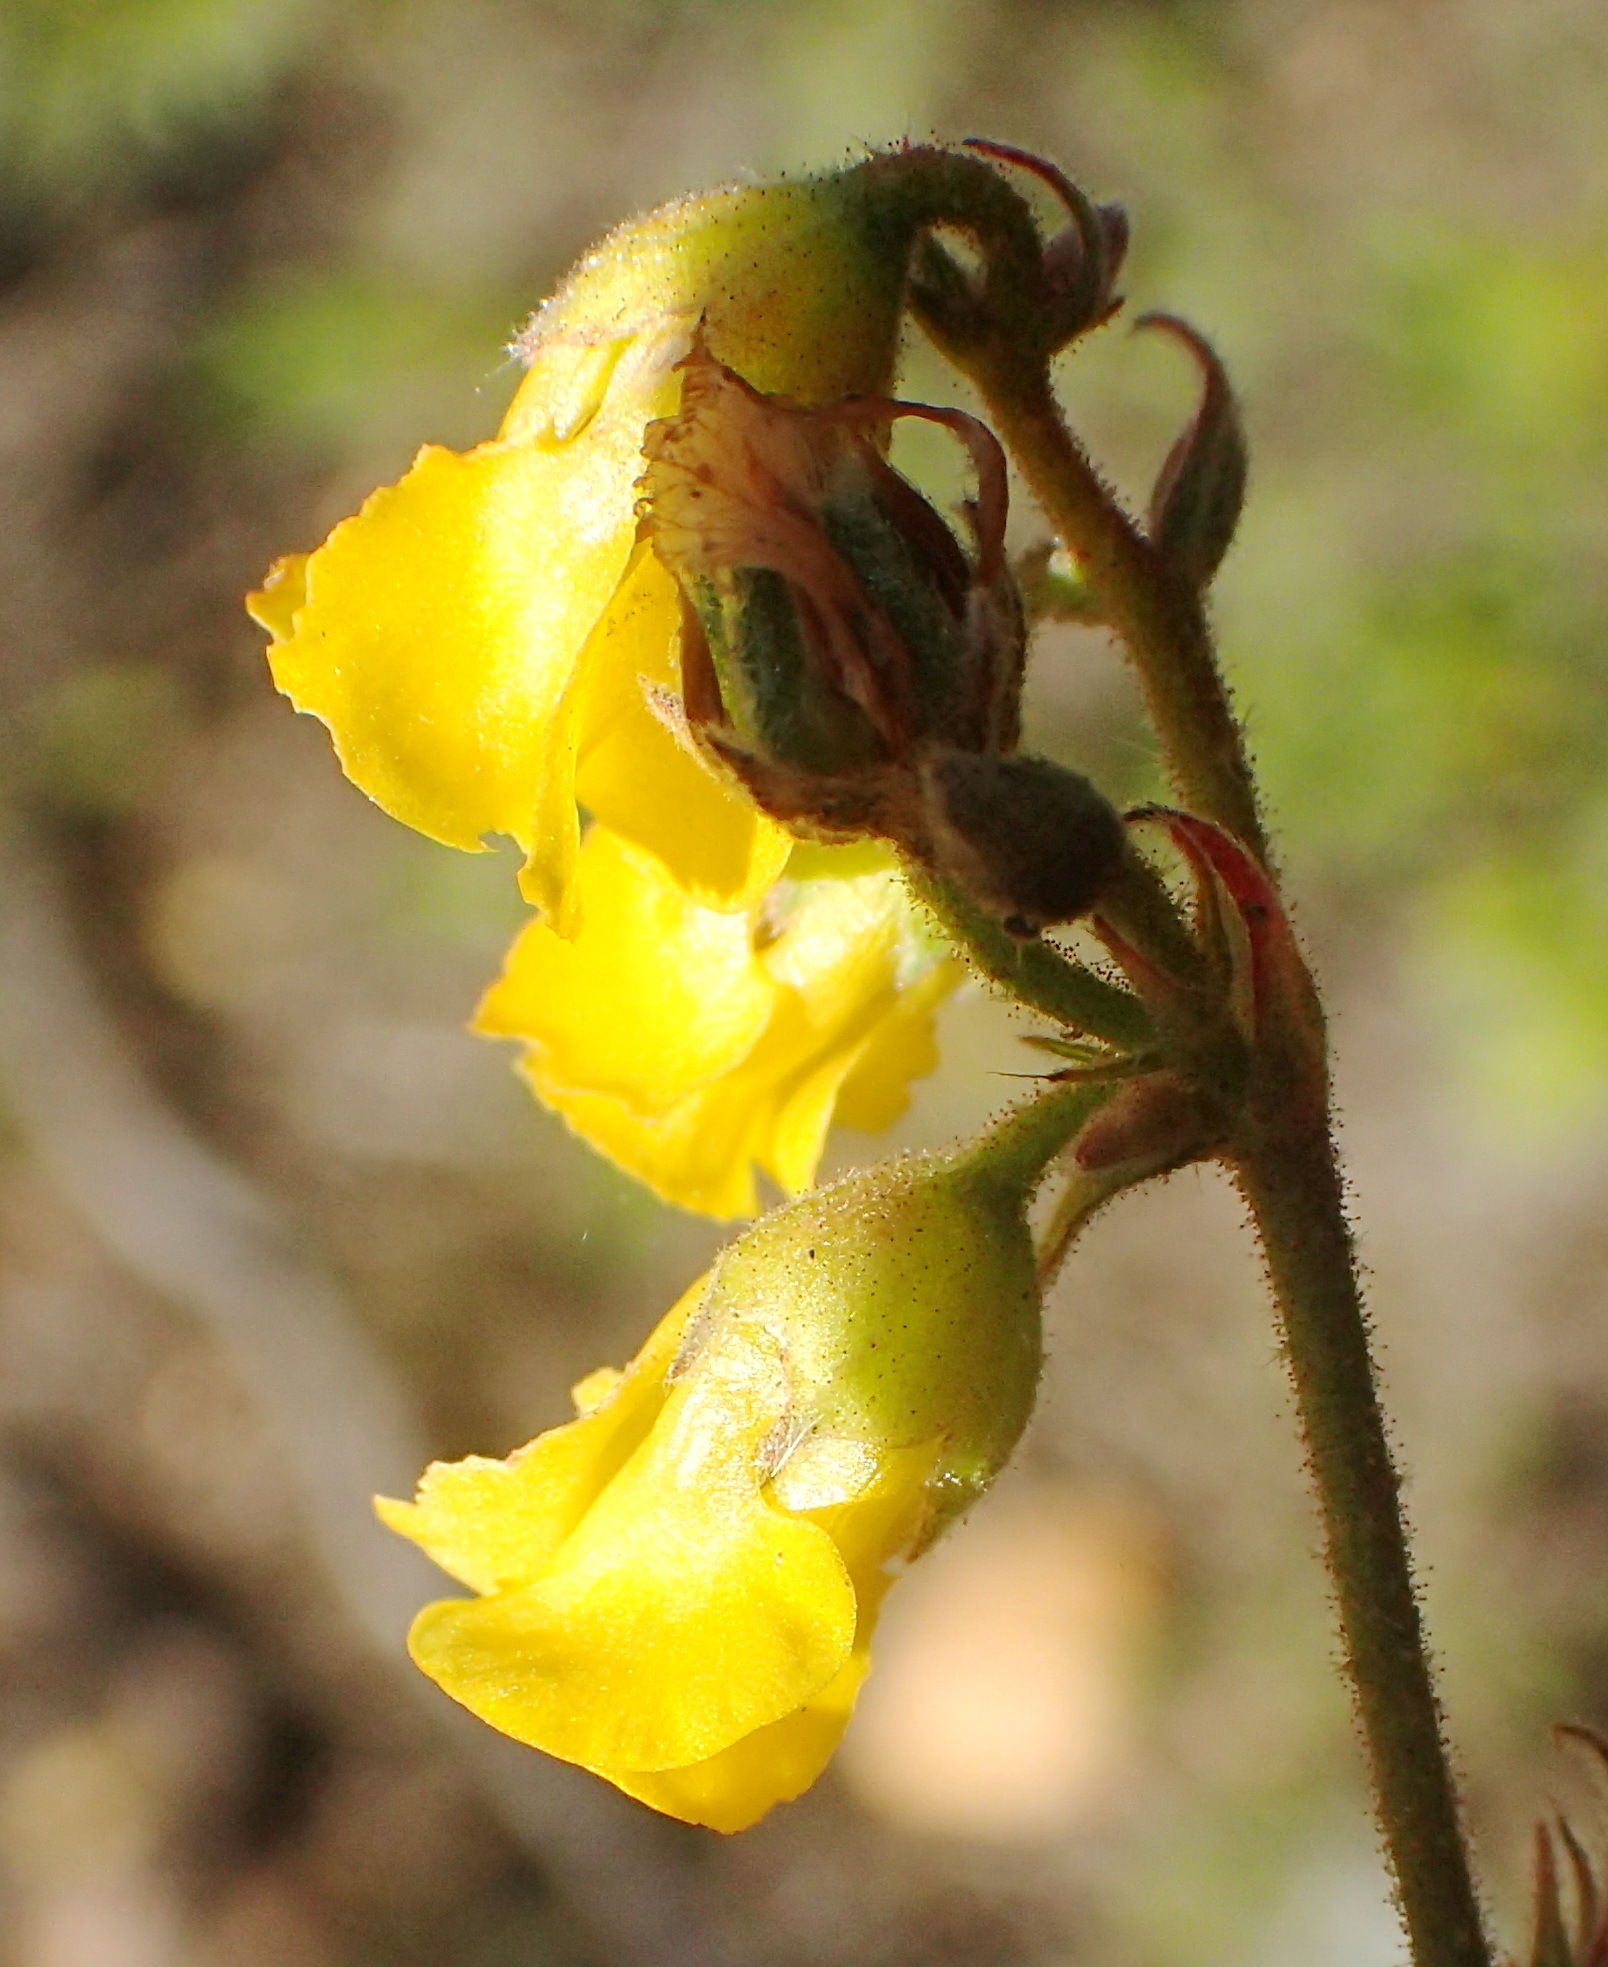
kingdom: Plantae
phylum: Tracheophyta
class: Magnoliopsida
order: Malvales
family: Malvaceae
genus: Hermannia
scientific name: Hermannia althaeoides
